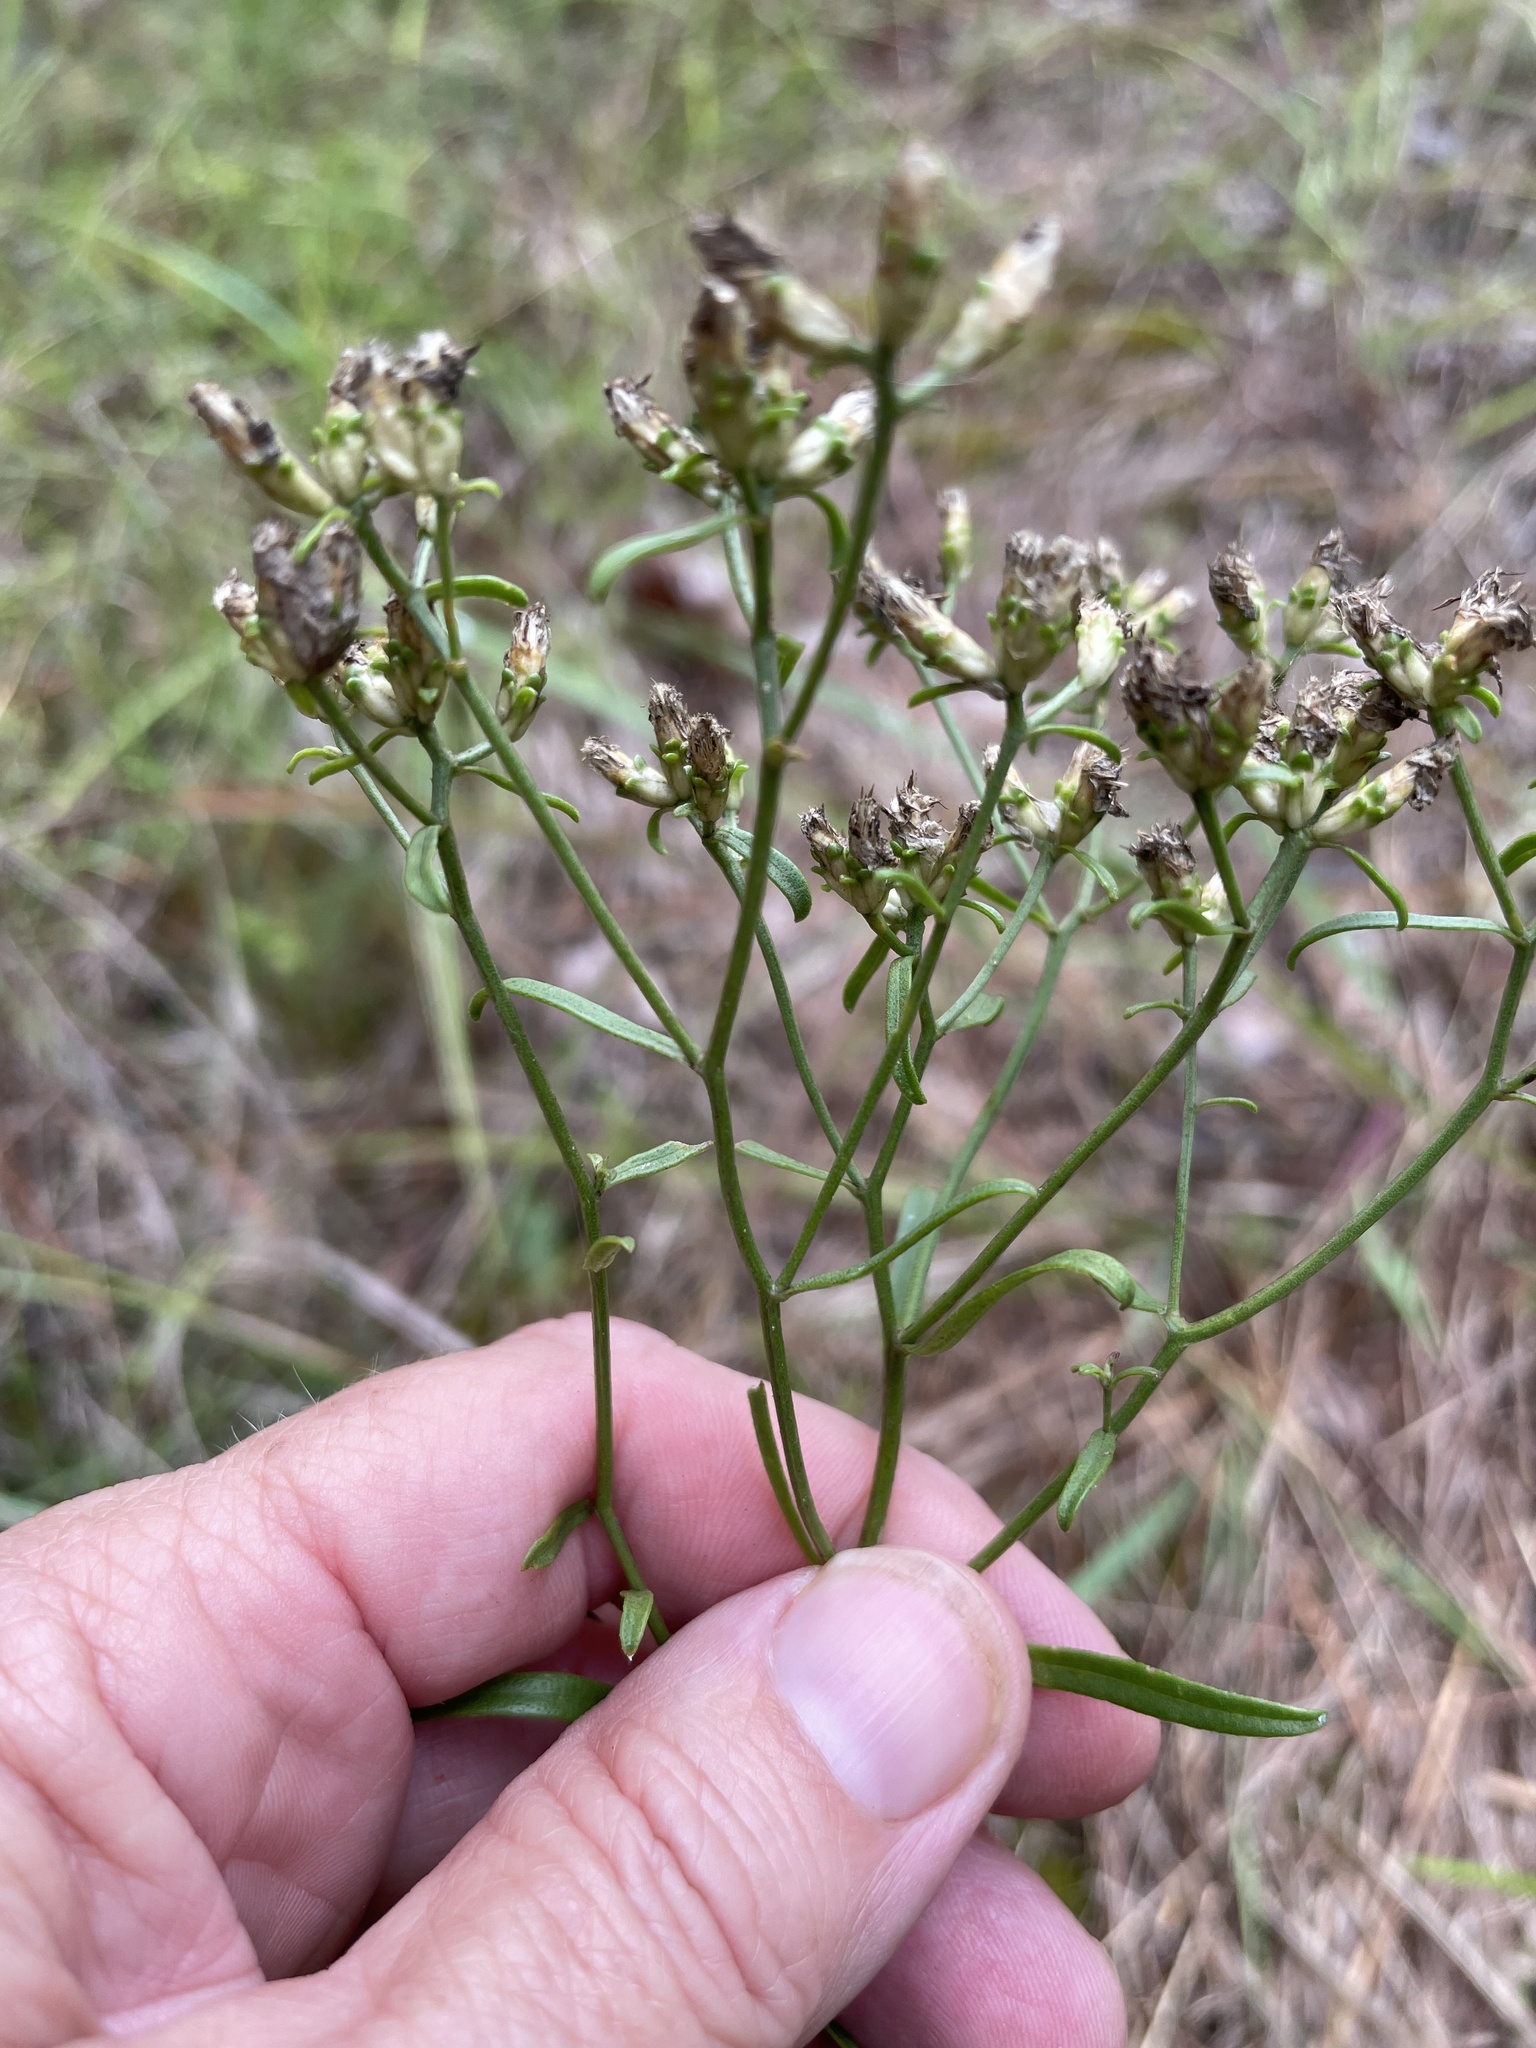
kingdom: Plantae
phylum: Tracheophyta
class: Magnoliopsida
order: Asterales
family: Asteraceae
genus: Sericocarpus
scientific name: Sericocarpus linifolius
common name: Narrow-leaf aster
